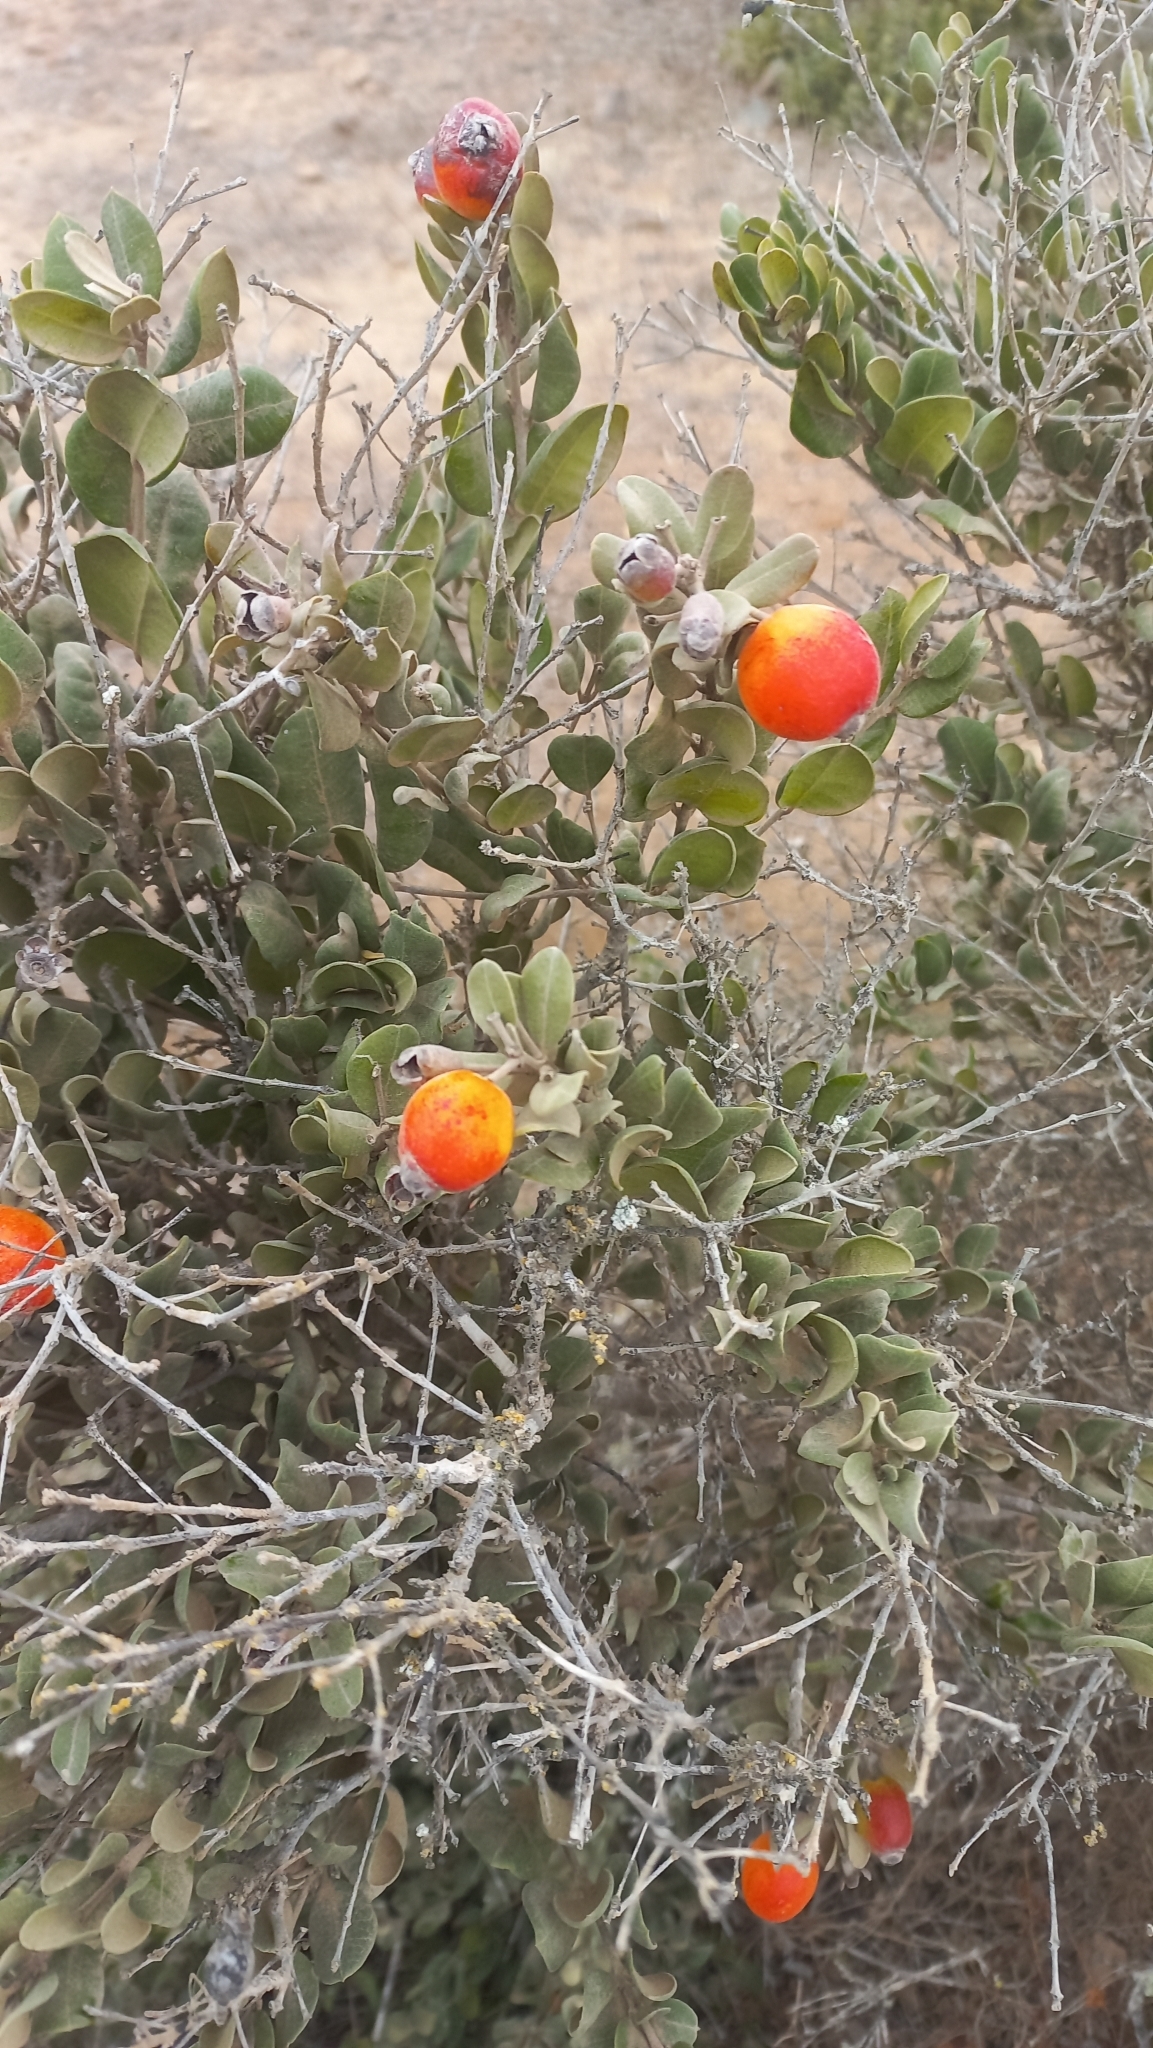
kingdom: Plantae
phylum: Tracheophyta
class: Magnoliopsida
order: Myrtales
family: Myrtaceae
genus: Myrcianthes
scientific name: Myrcianthes coquimbensis
